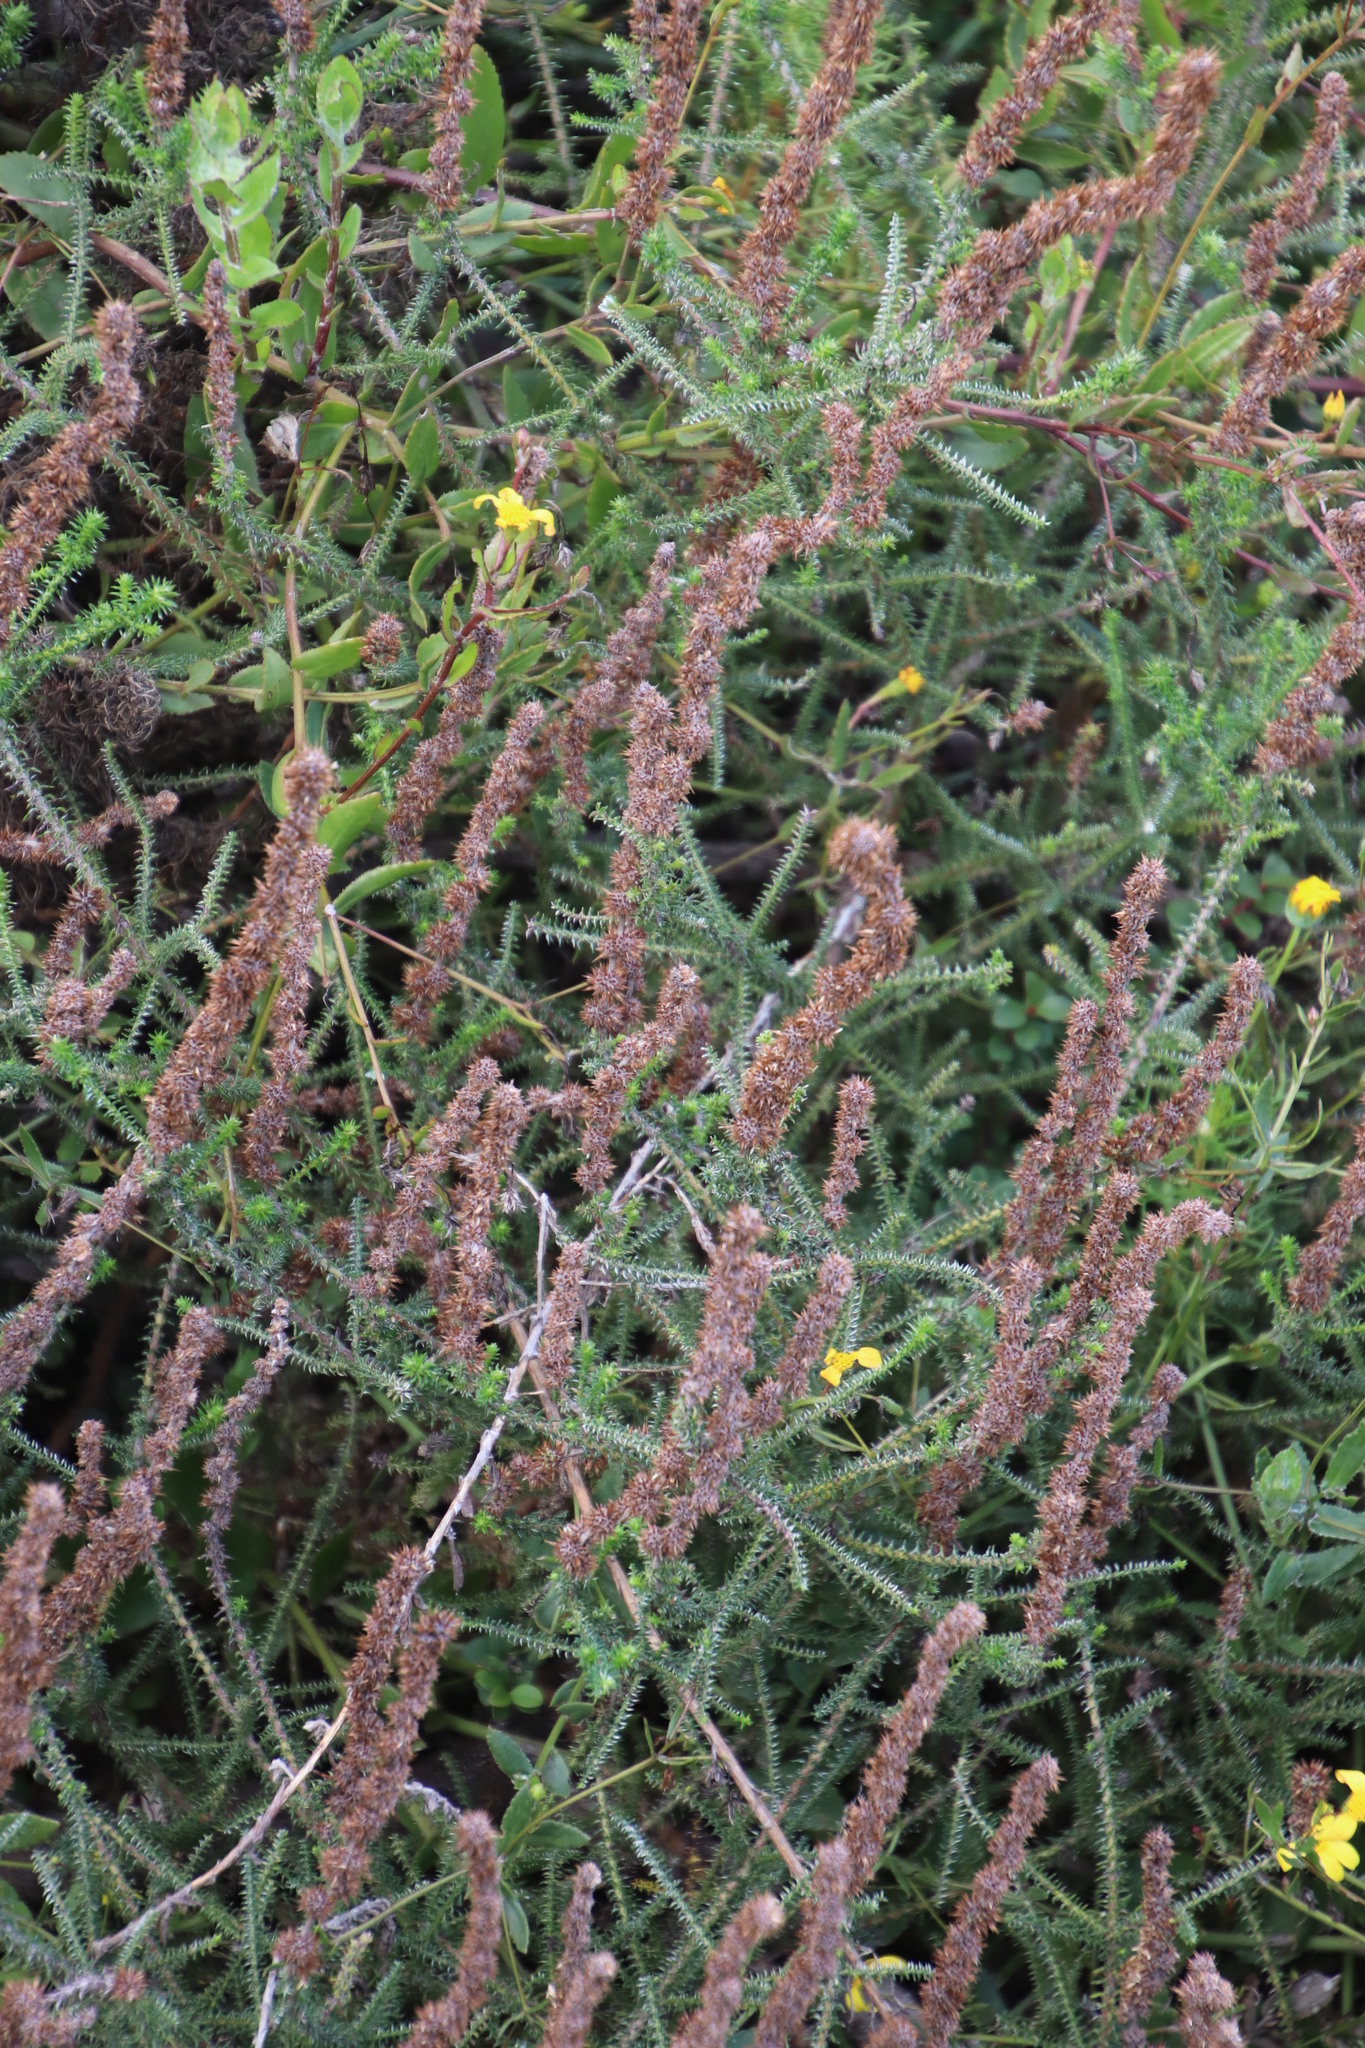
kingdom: Plantae
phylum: Tracheophyta
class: Magnoliopsida
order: Asterales
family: Asteraceae
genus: Seriphium
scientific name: Seriphium cinereum
